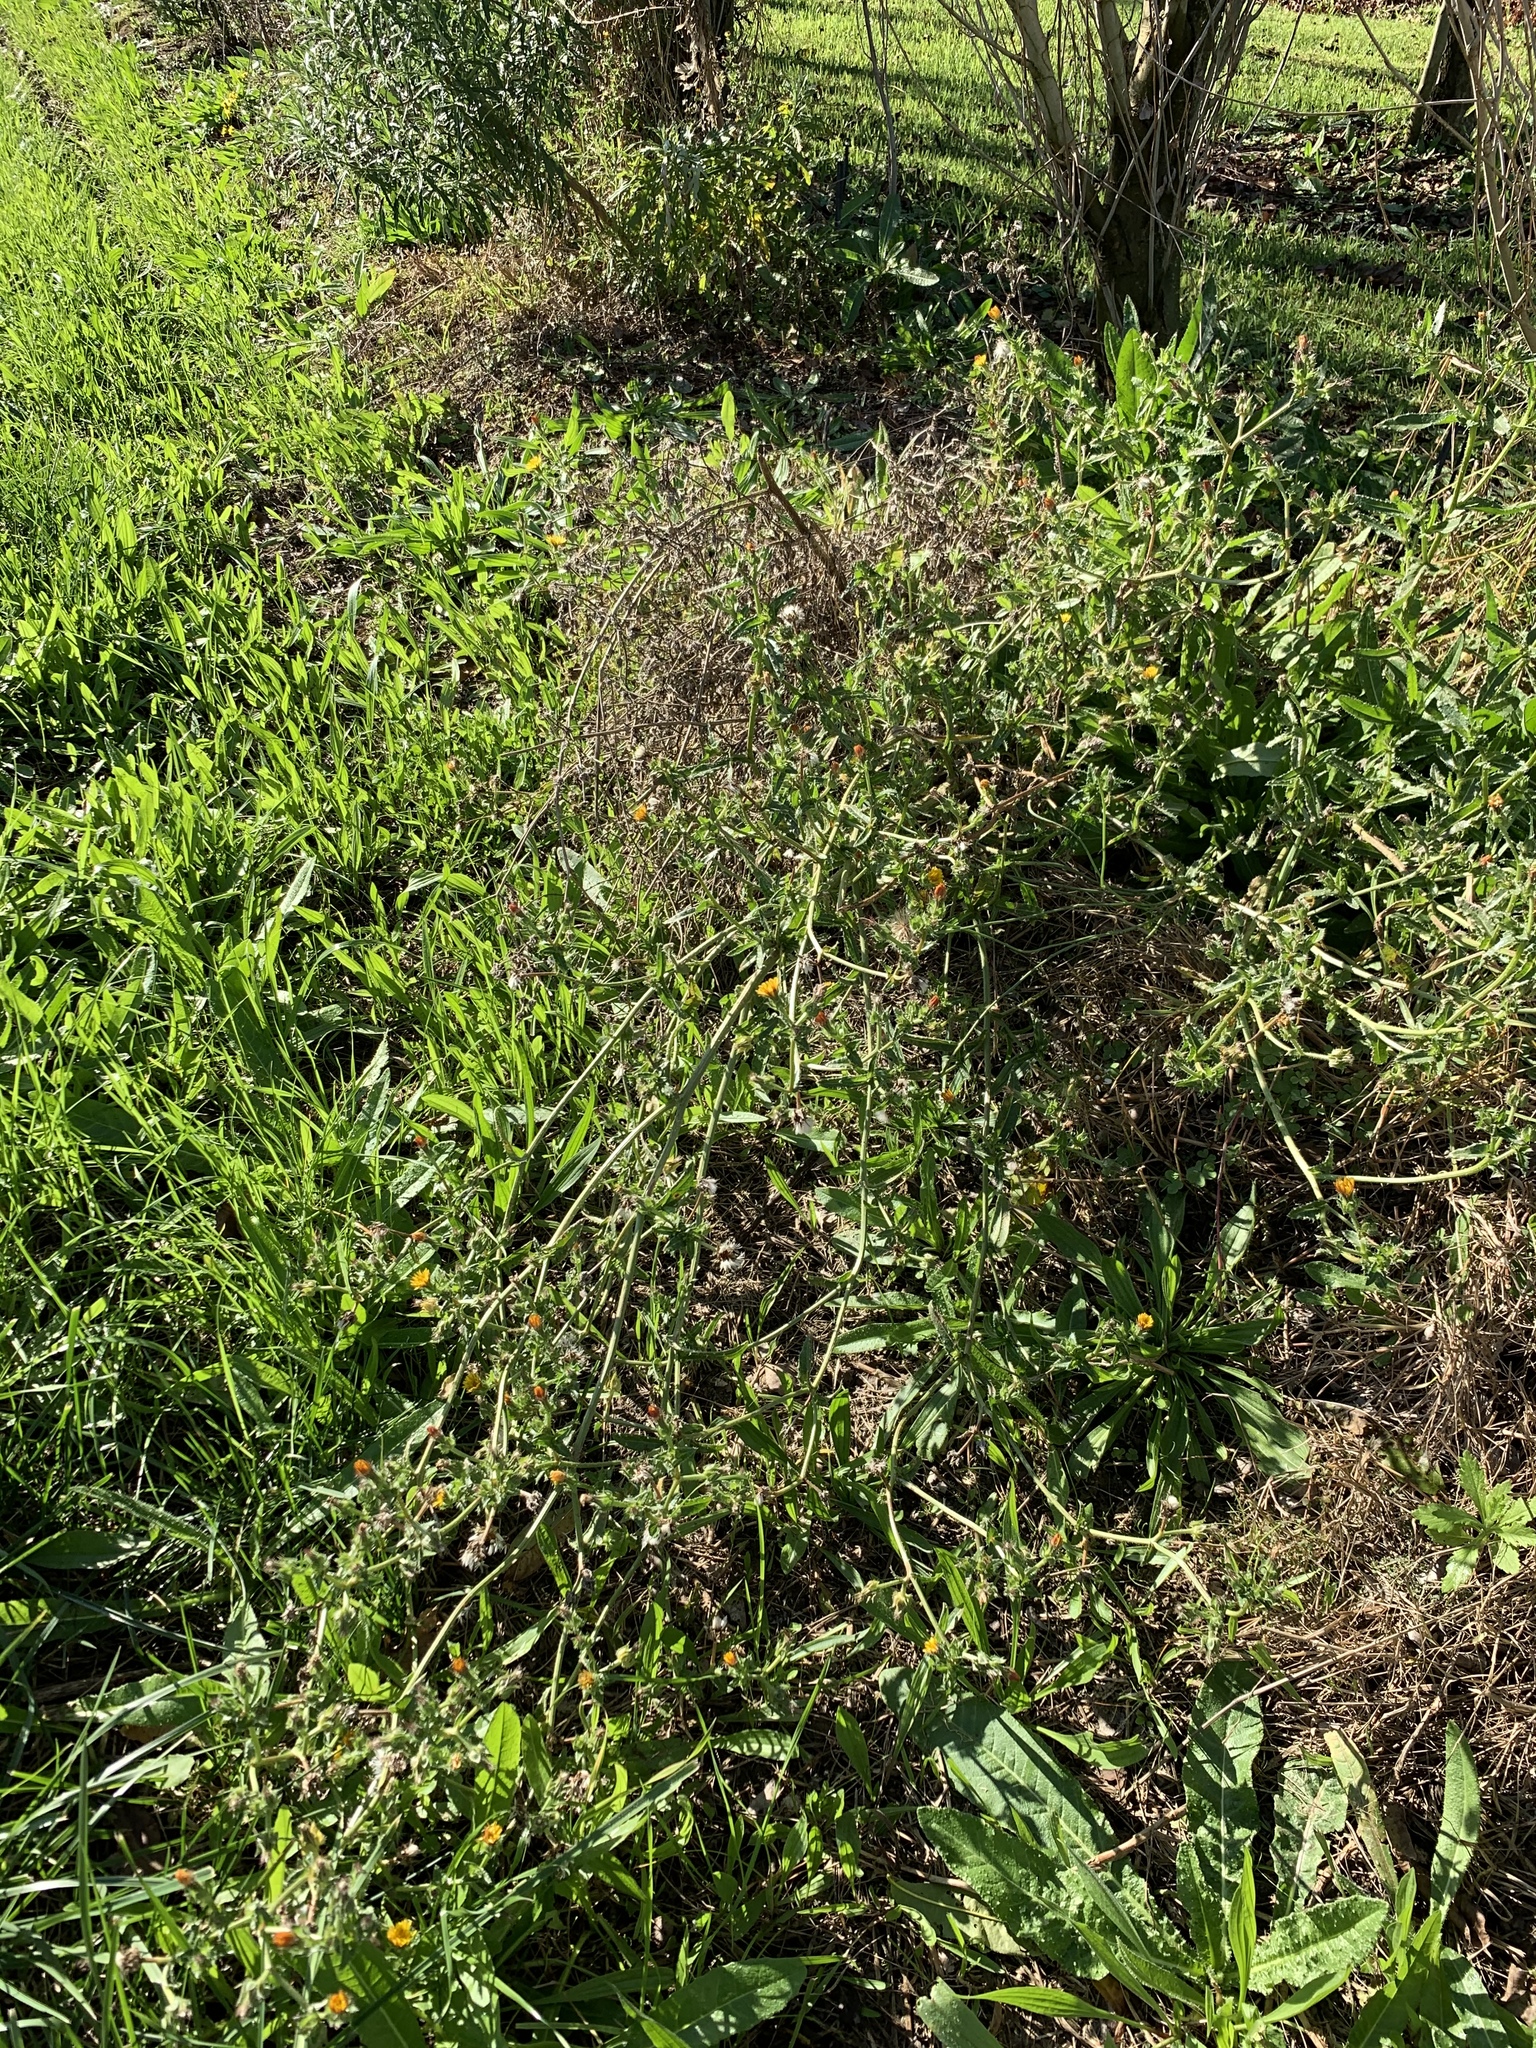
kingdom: Plantae
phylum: Tracheophyta
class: Magnoliopsida
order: Asterales
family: Asteraceae
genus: Helminthotheca
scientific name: Helminthotheca echioides
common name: Ox-tongue
